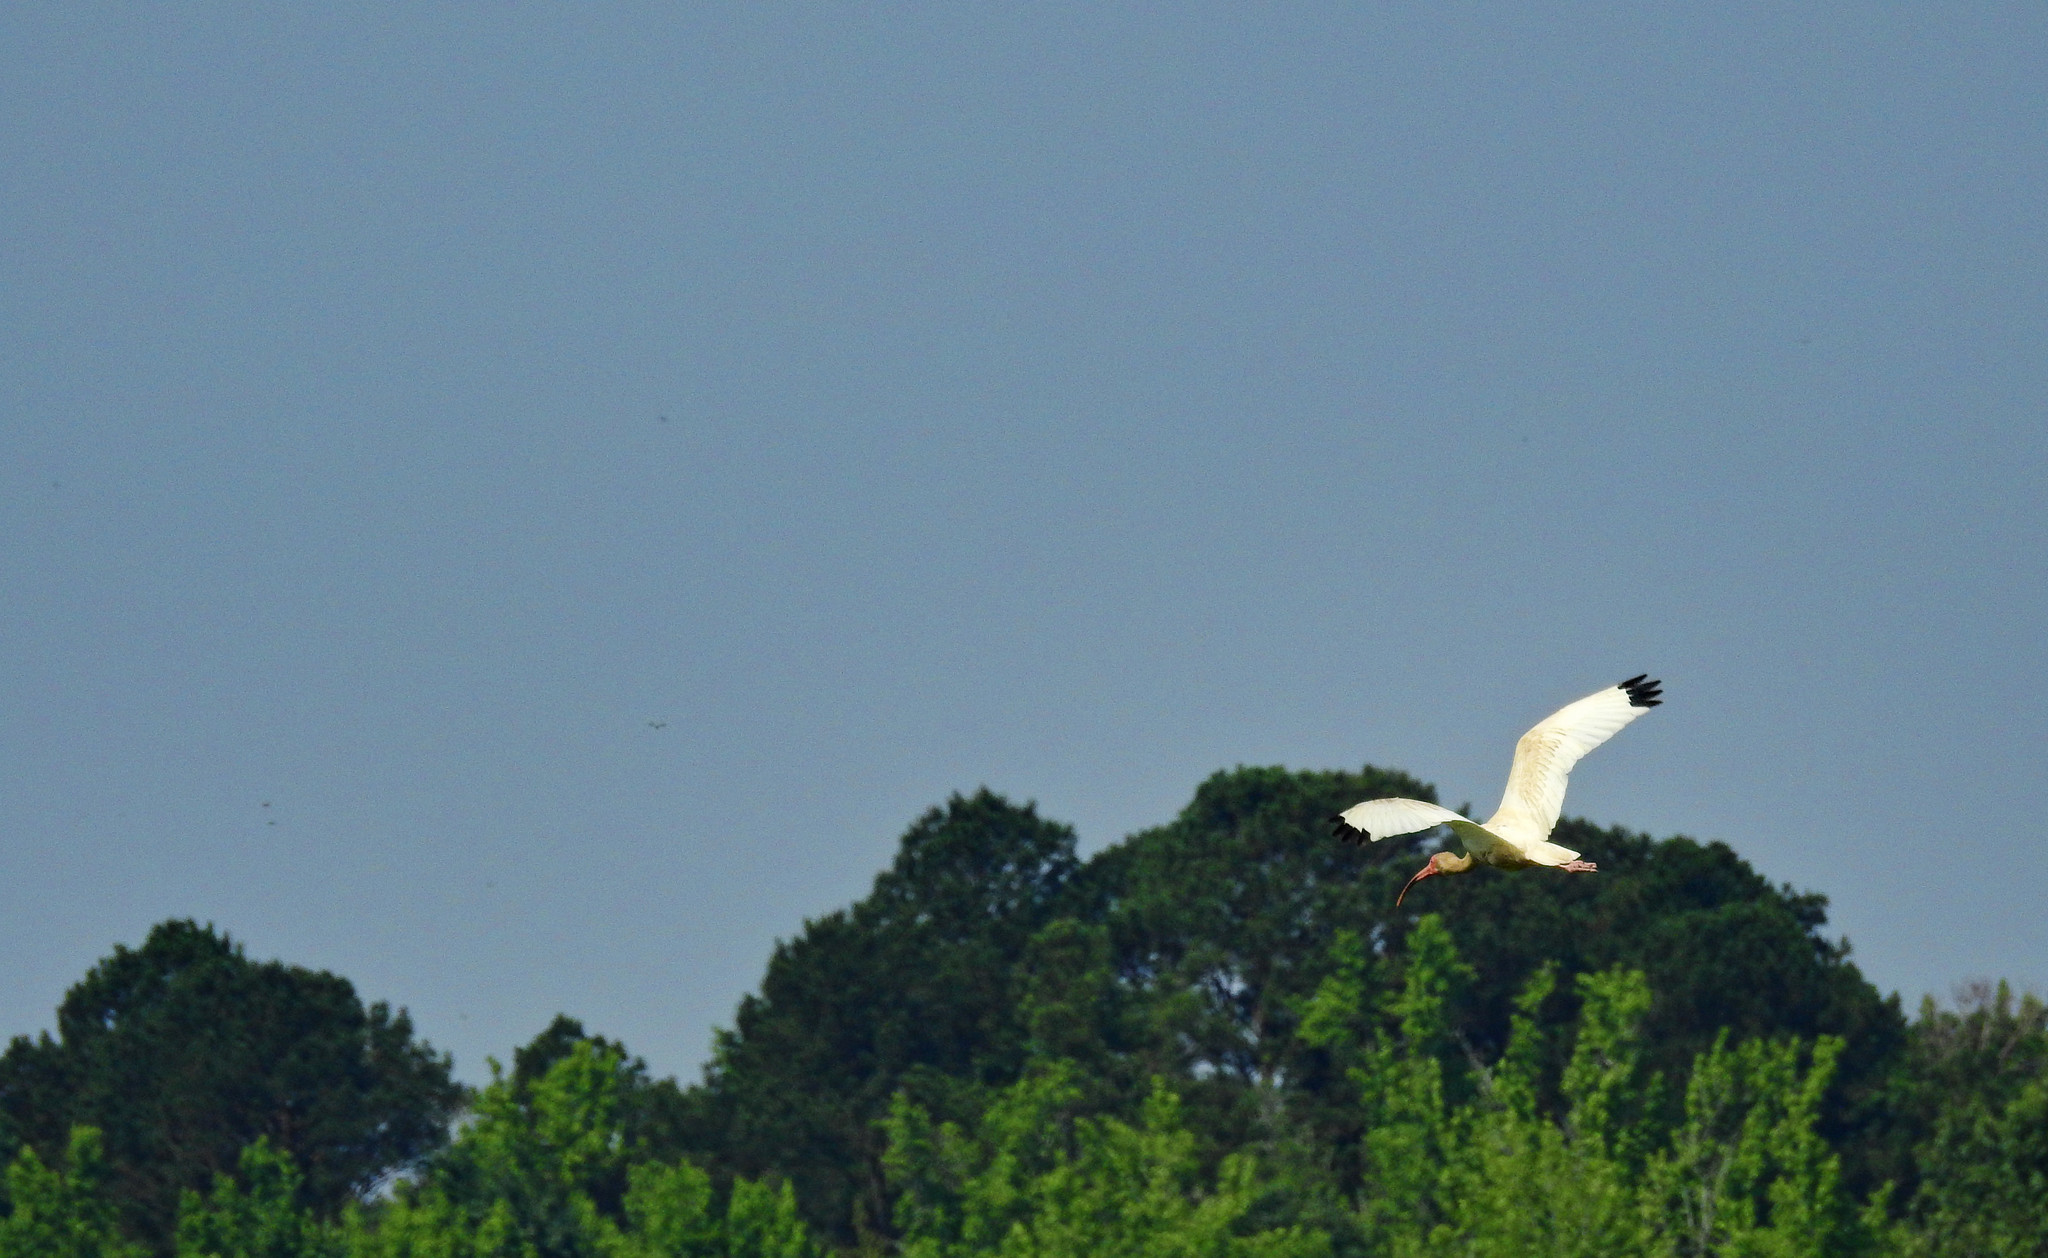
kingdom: Animalia
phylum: Chordata
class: Aves
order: Pelecaniformes
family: Threskiornithidae
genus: Eudocimus
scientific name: Eudocimus albus
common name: White ibis
